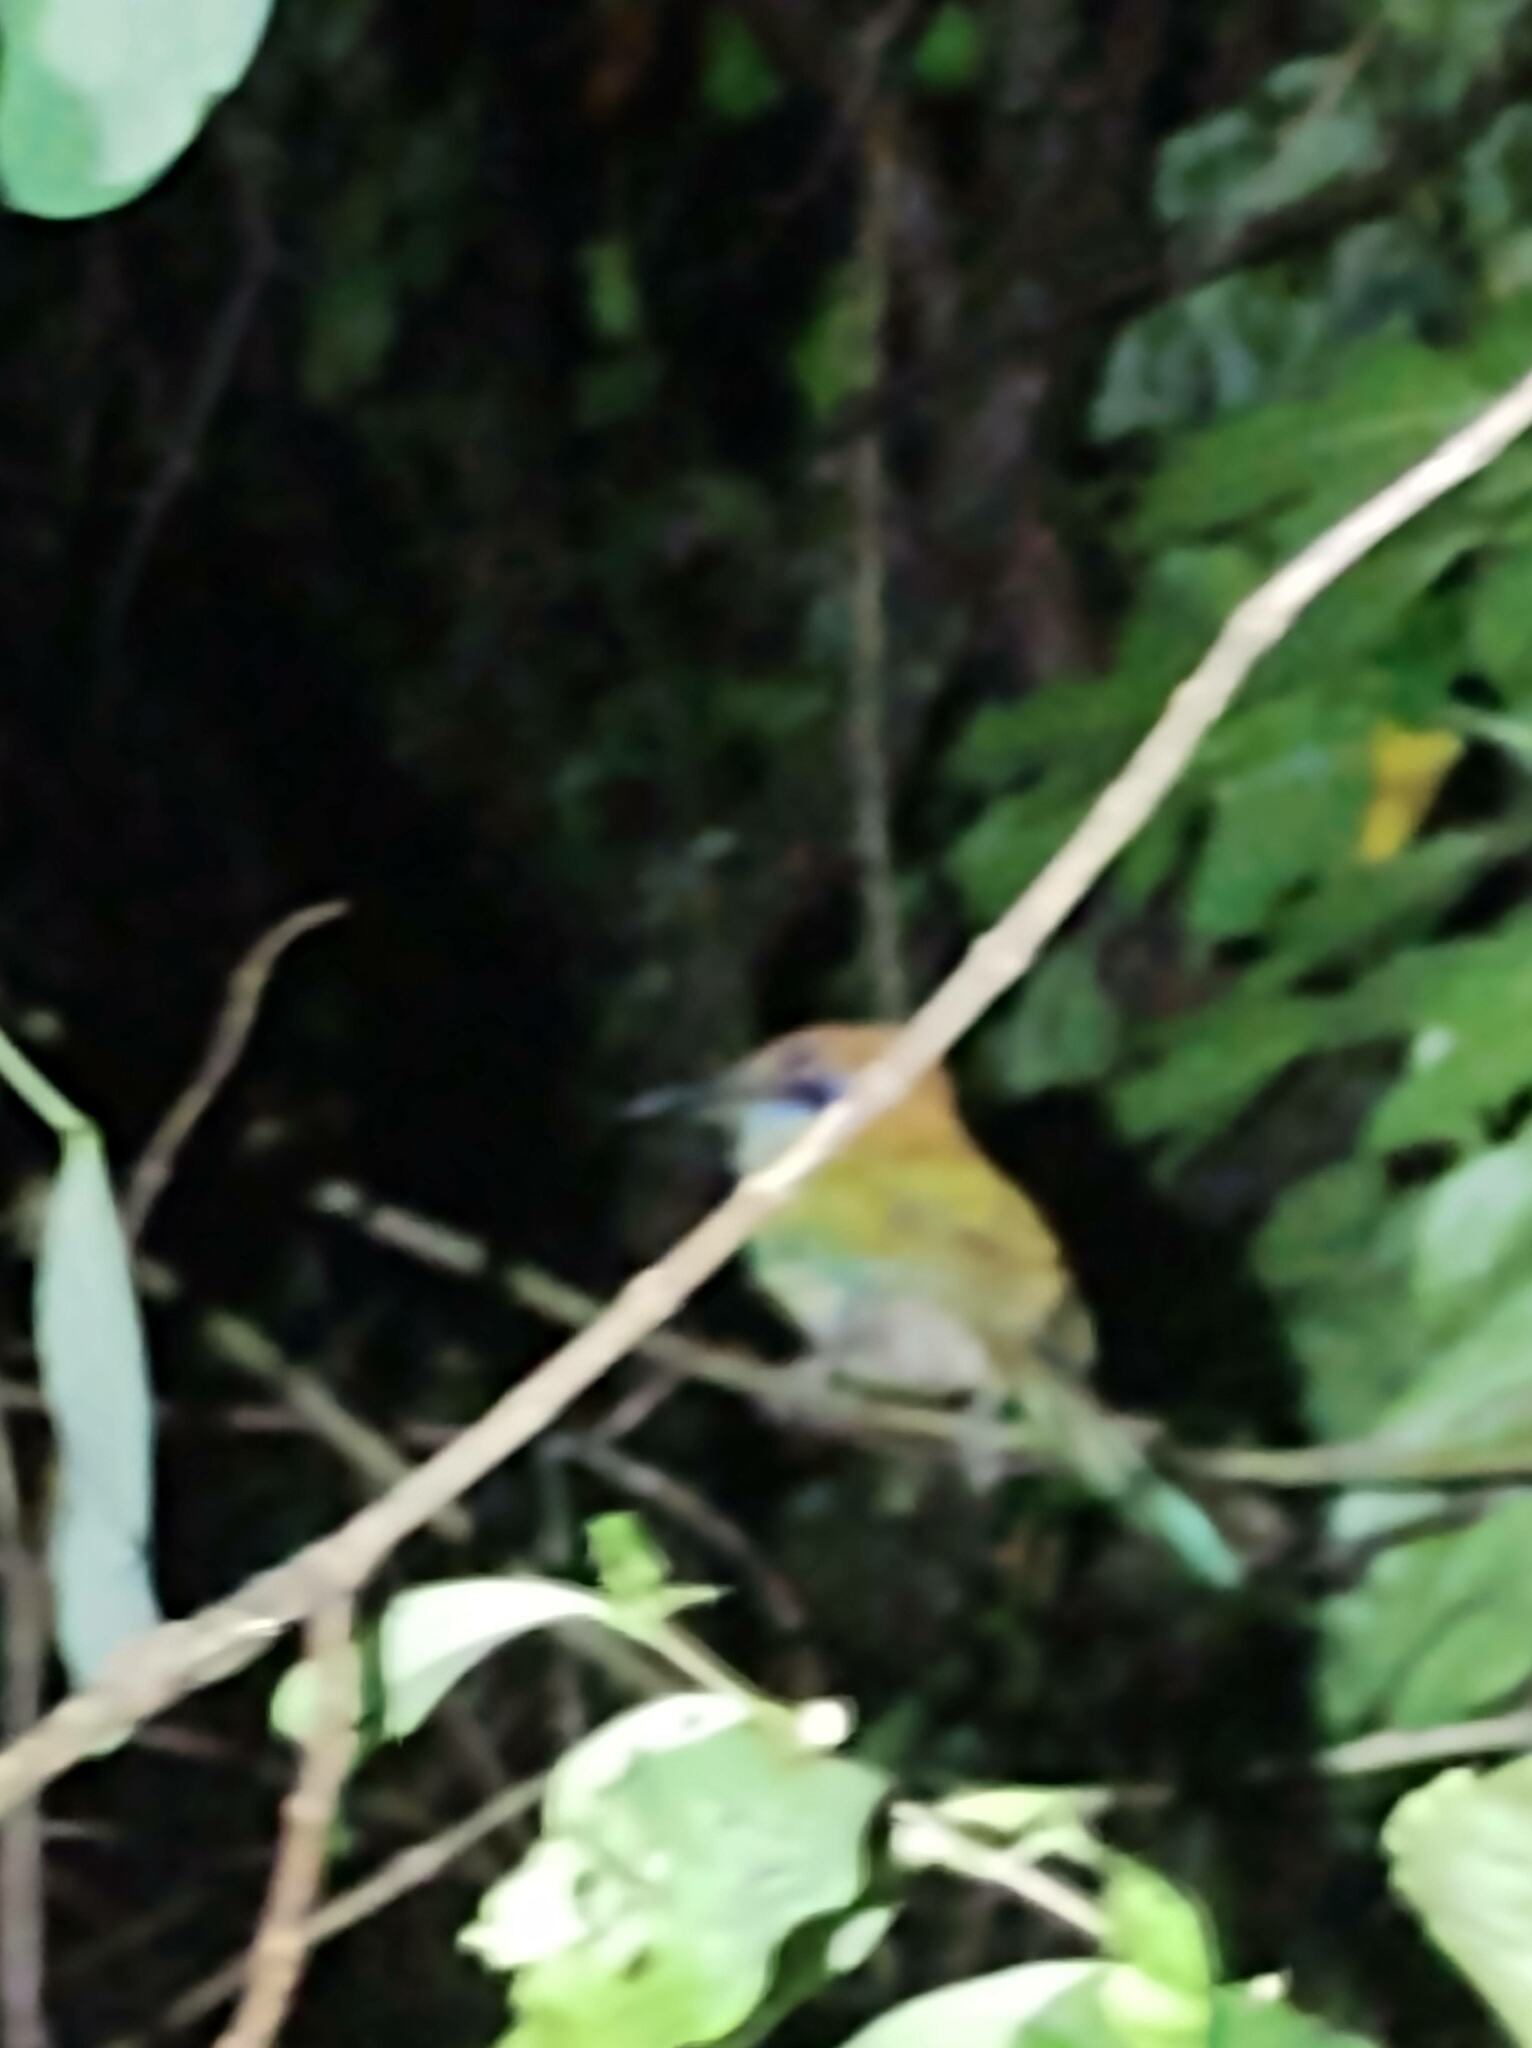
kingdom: Animalia
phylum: Chordata
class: Aves
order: Coraciiformes
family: Momotidae
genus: Momotus
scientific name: Momotus mexicanus
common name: Russet-crowned motmot
